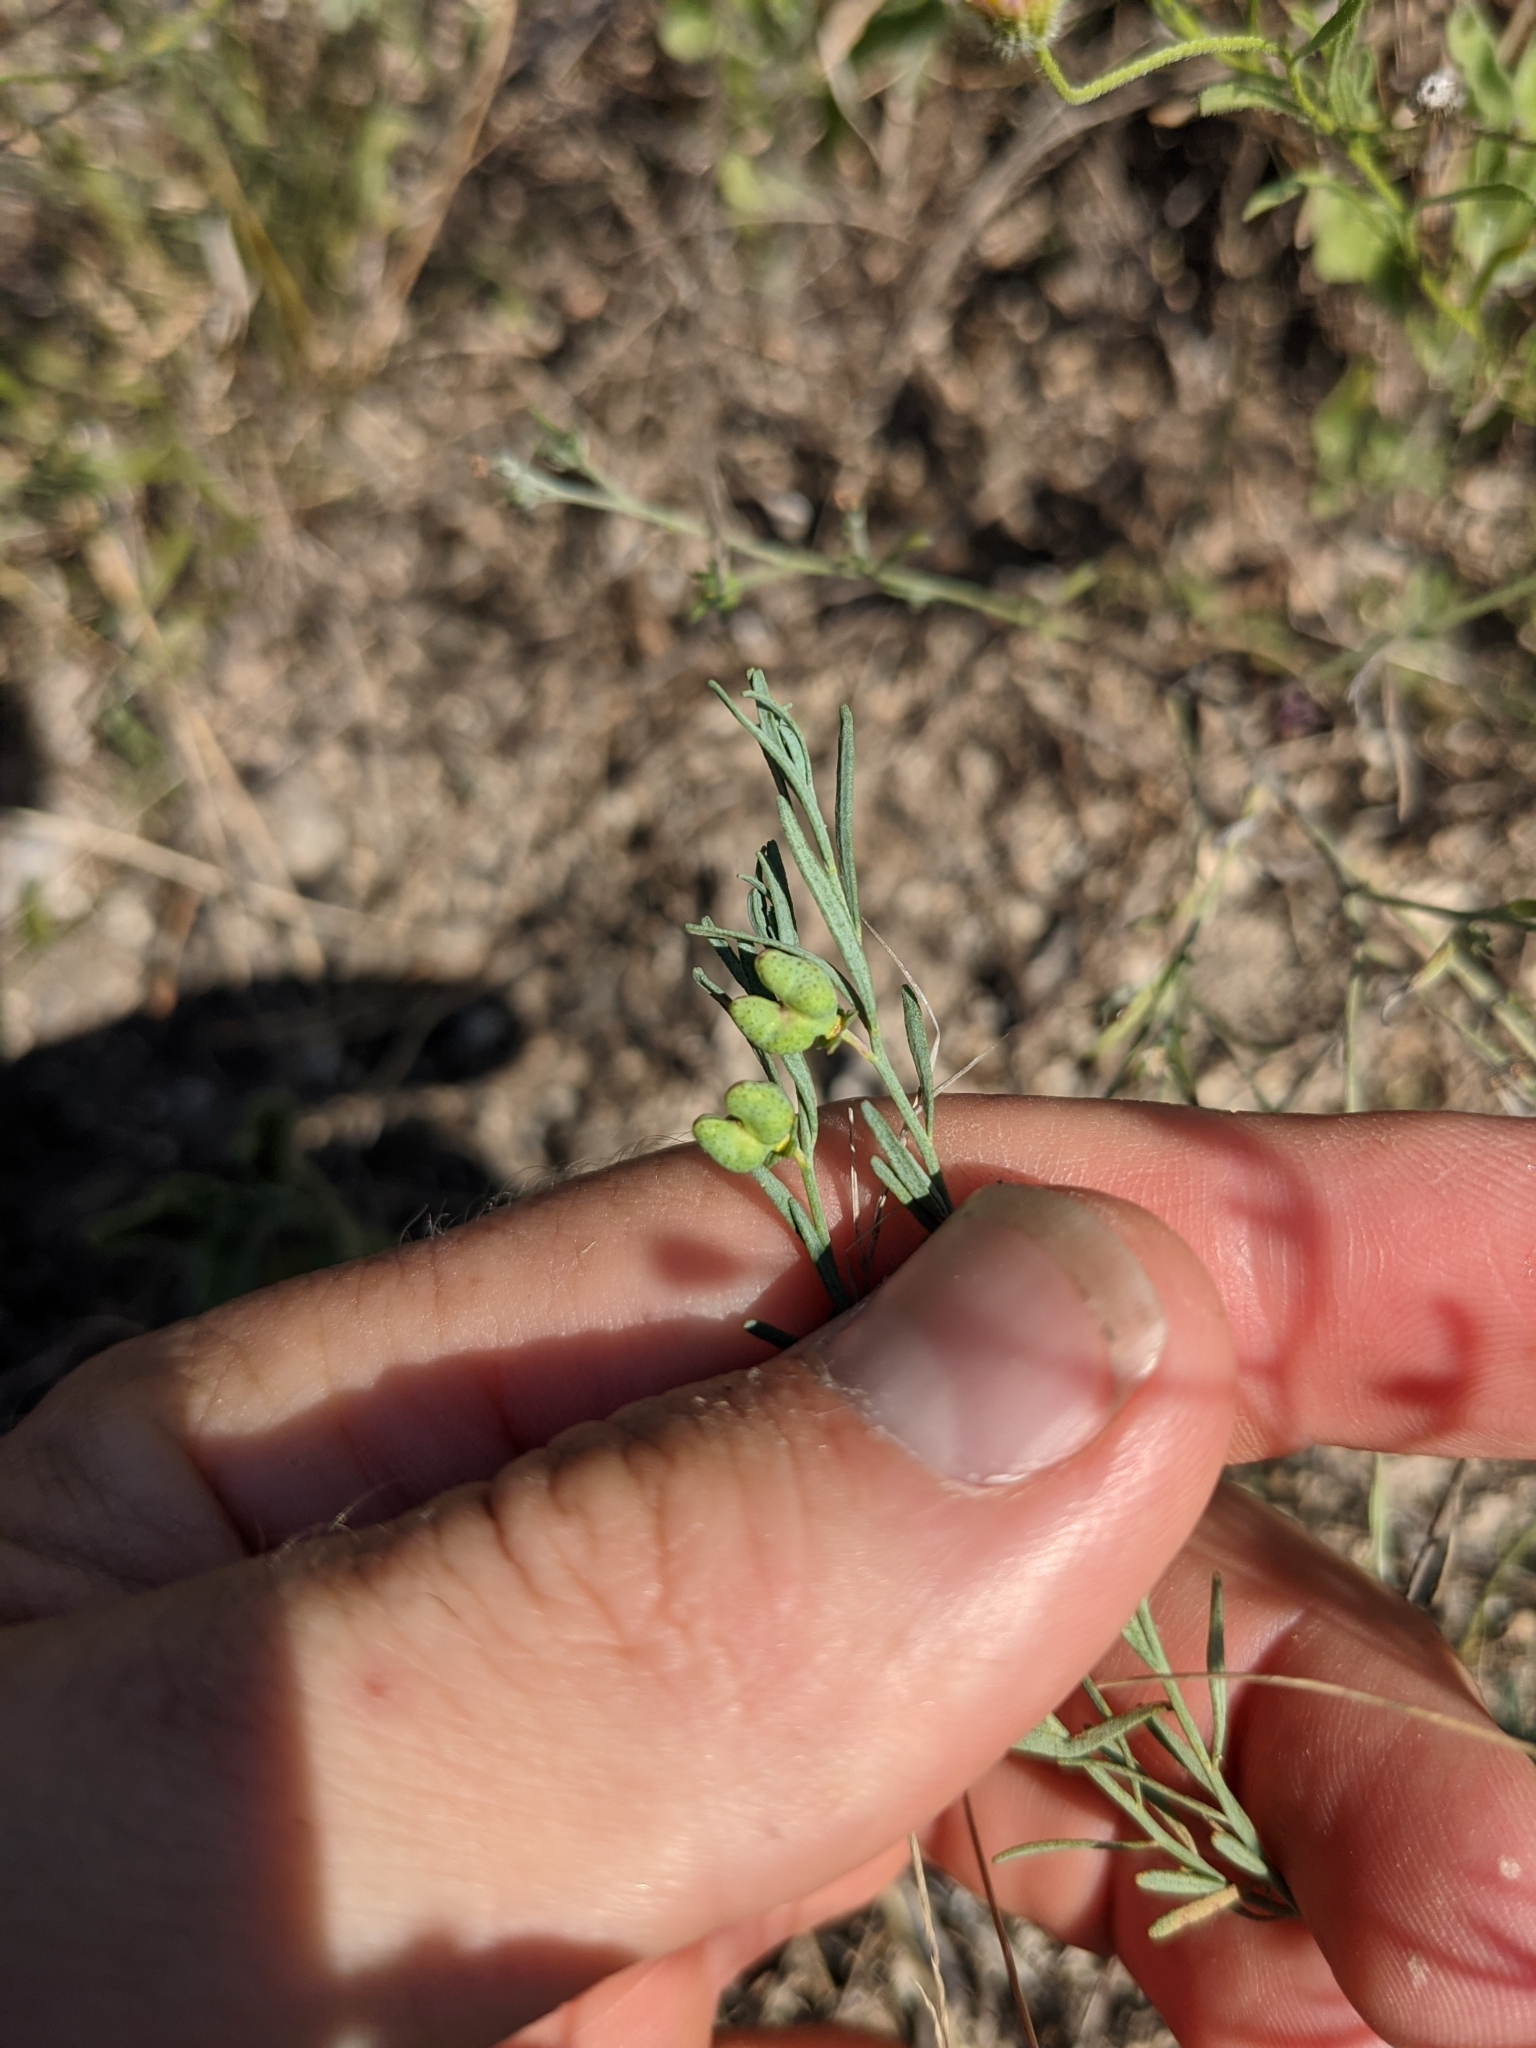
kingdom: Plantae
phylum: Tracheophyta
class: Magnoliopsida
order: Sapindales
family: Rutaceae
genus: Thamnosma
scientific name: Thamnosma texana
